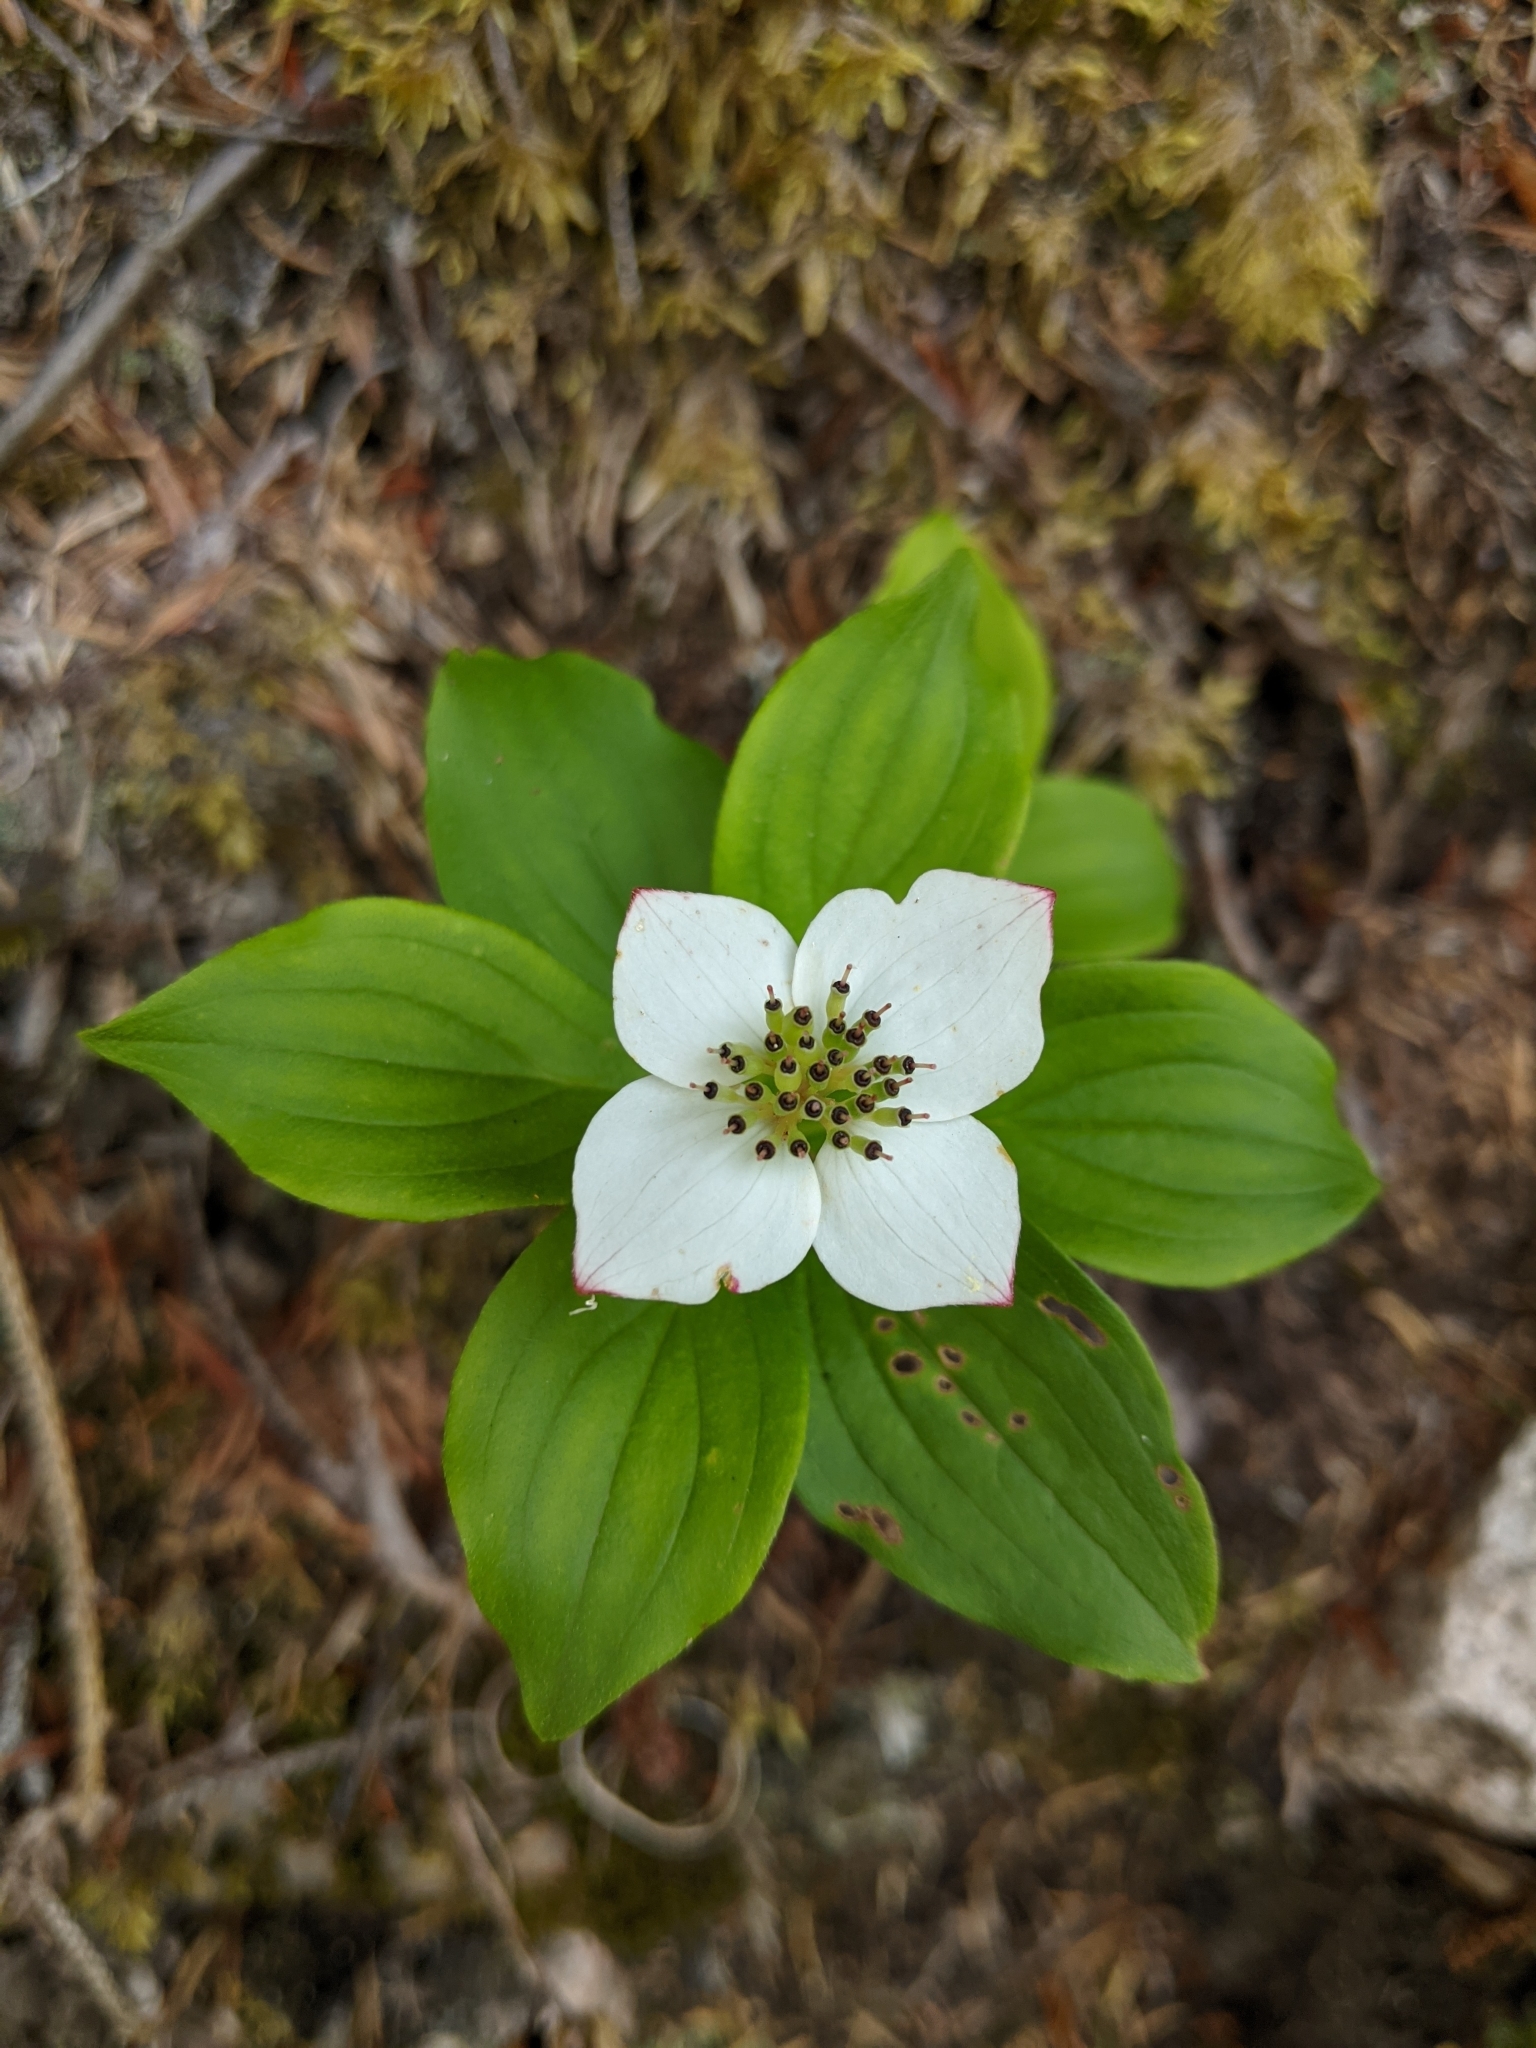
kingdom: Plantae
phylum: Tracheophyta
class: Magnoliopsida
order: Cornales
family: Cornaceae
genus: Cornus
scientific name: Cornus canadensis
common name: Creeping dogwood
